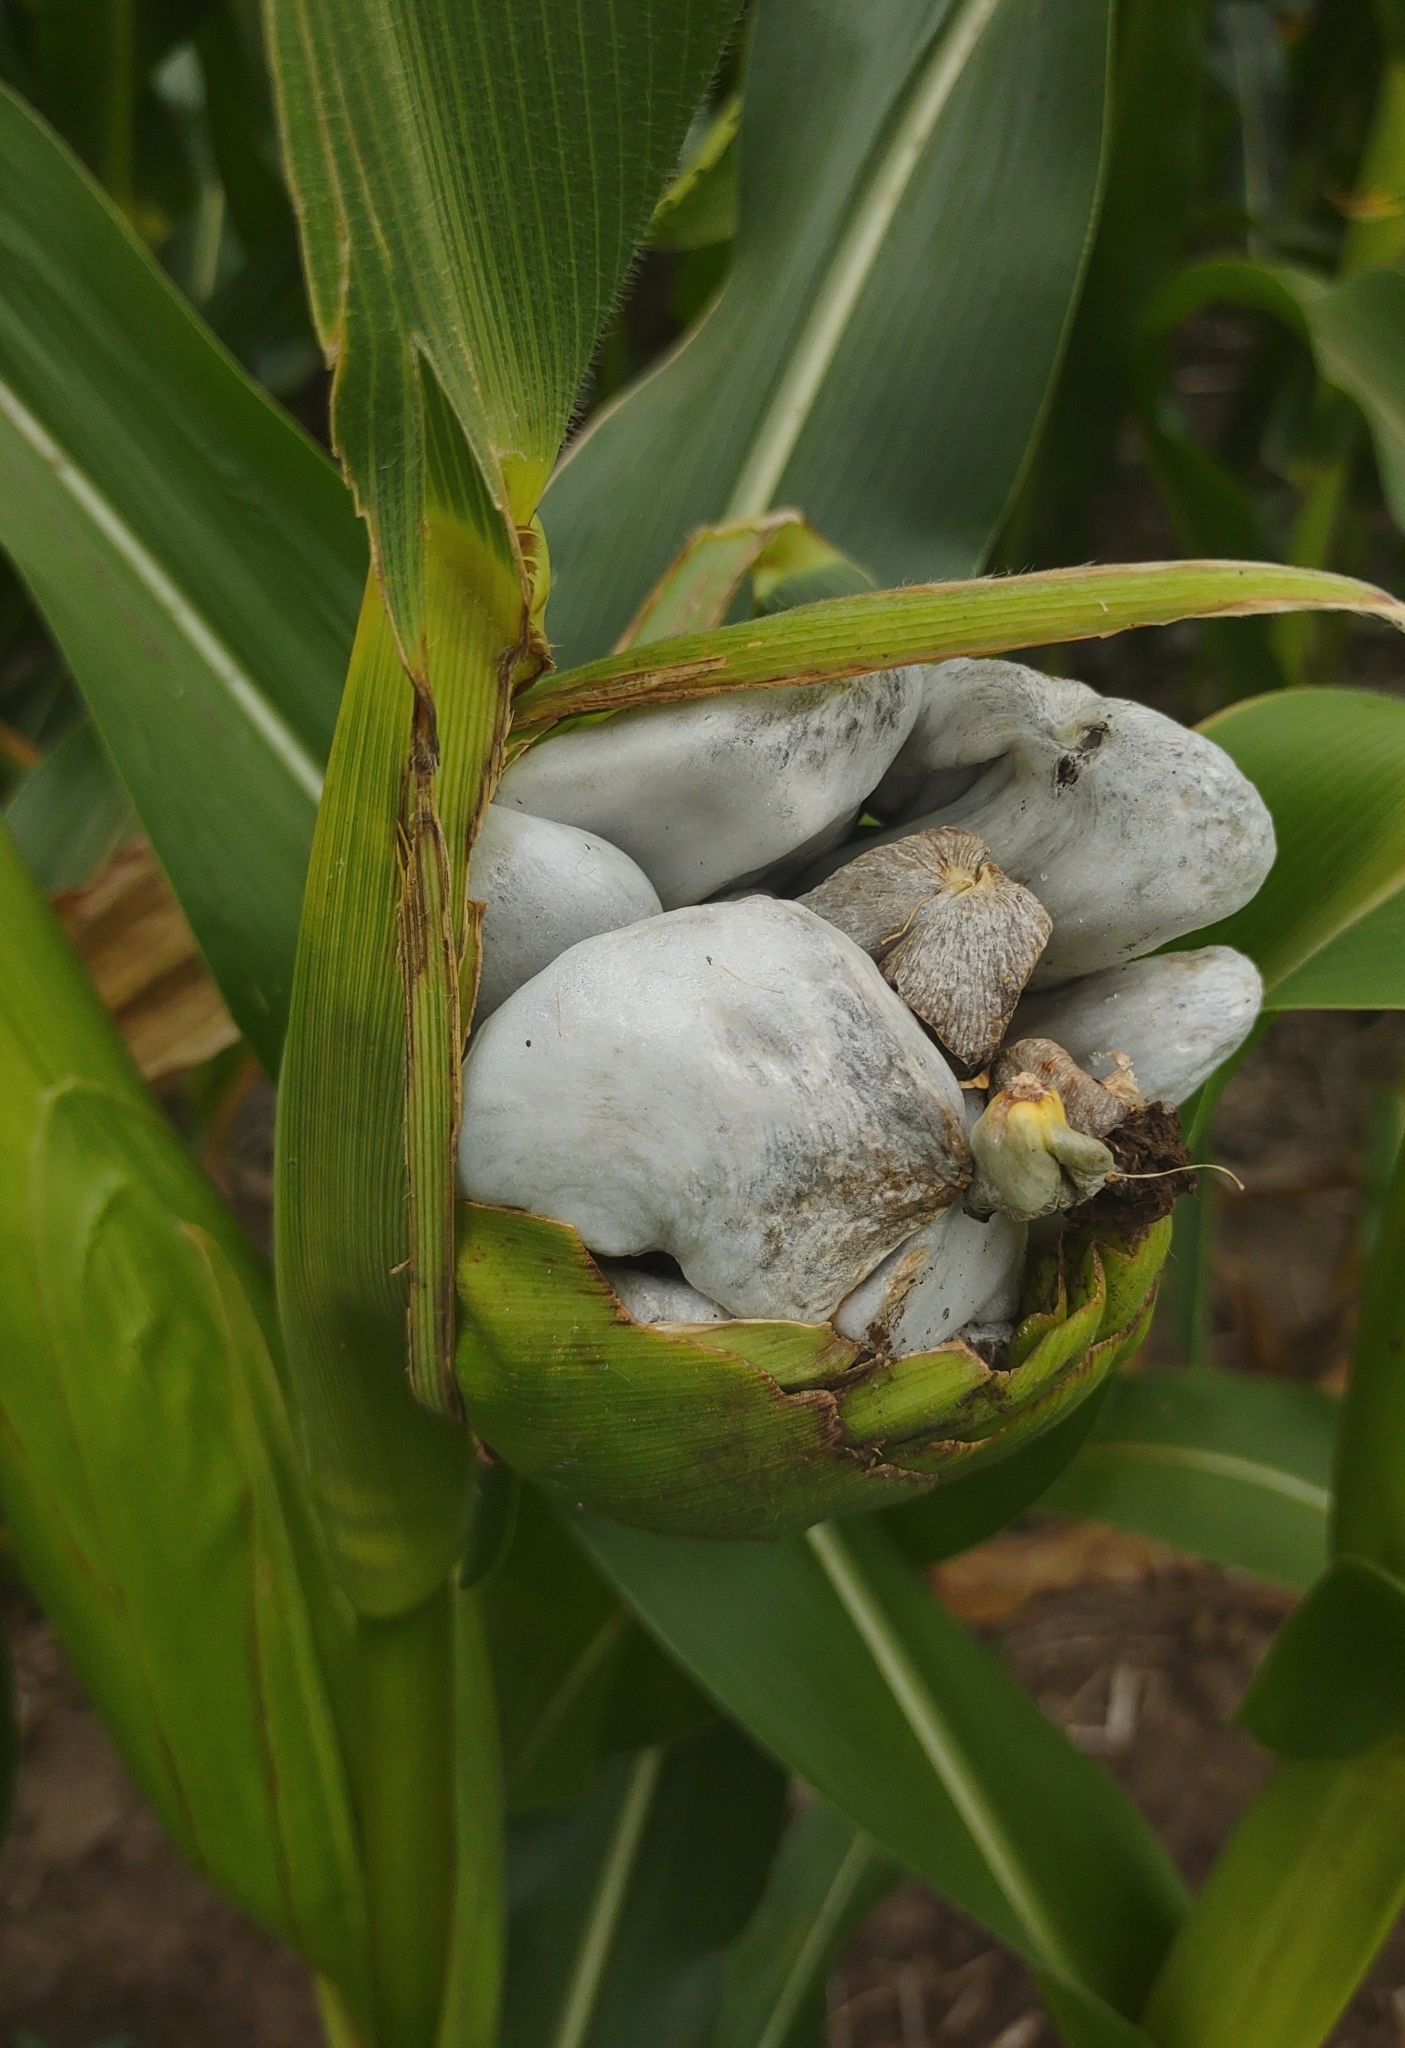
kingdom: Fungi
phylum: Basidiomycota
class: Ustilaginomycetes
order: Ustilaginales
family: Ustilaginaceae
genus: Mycosarcoma
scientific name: Mycosarcoma maydis
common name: Corn smut
